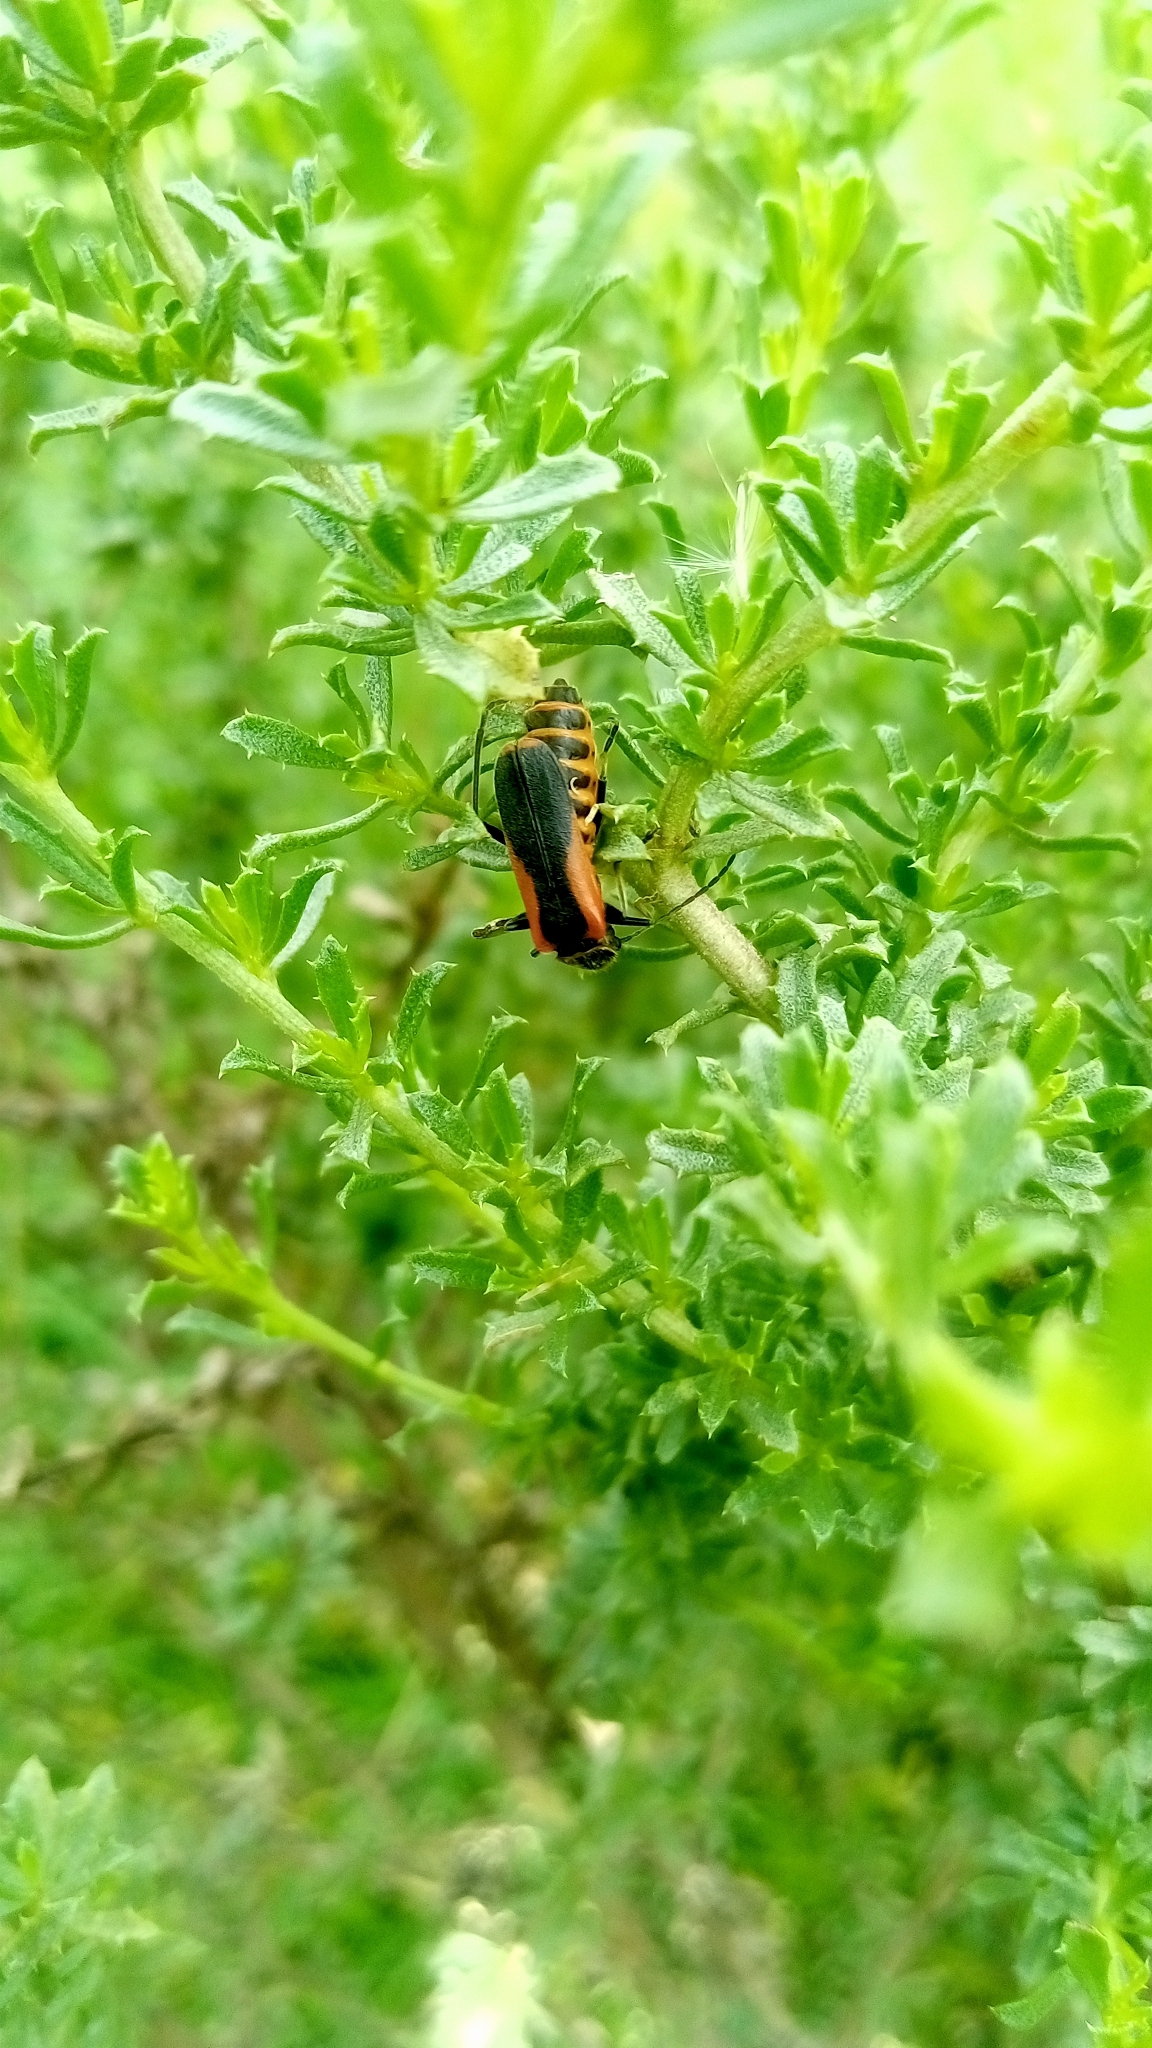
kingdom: Animalia
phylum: Arthropoda
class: Insecta
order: Coleoptera
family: Cantharidae
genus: Chauliognathus
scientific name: Chauliognathus limbicollis
